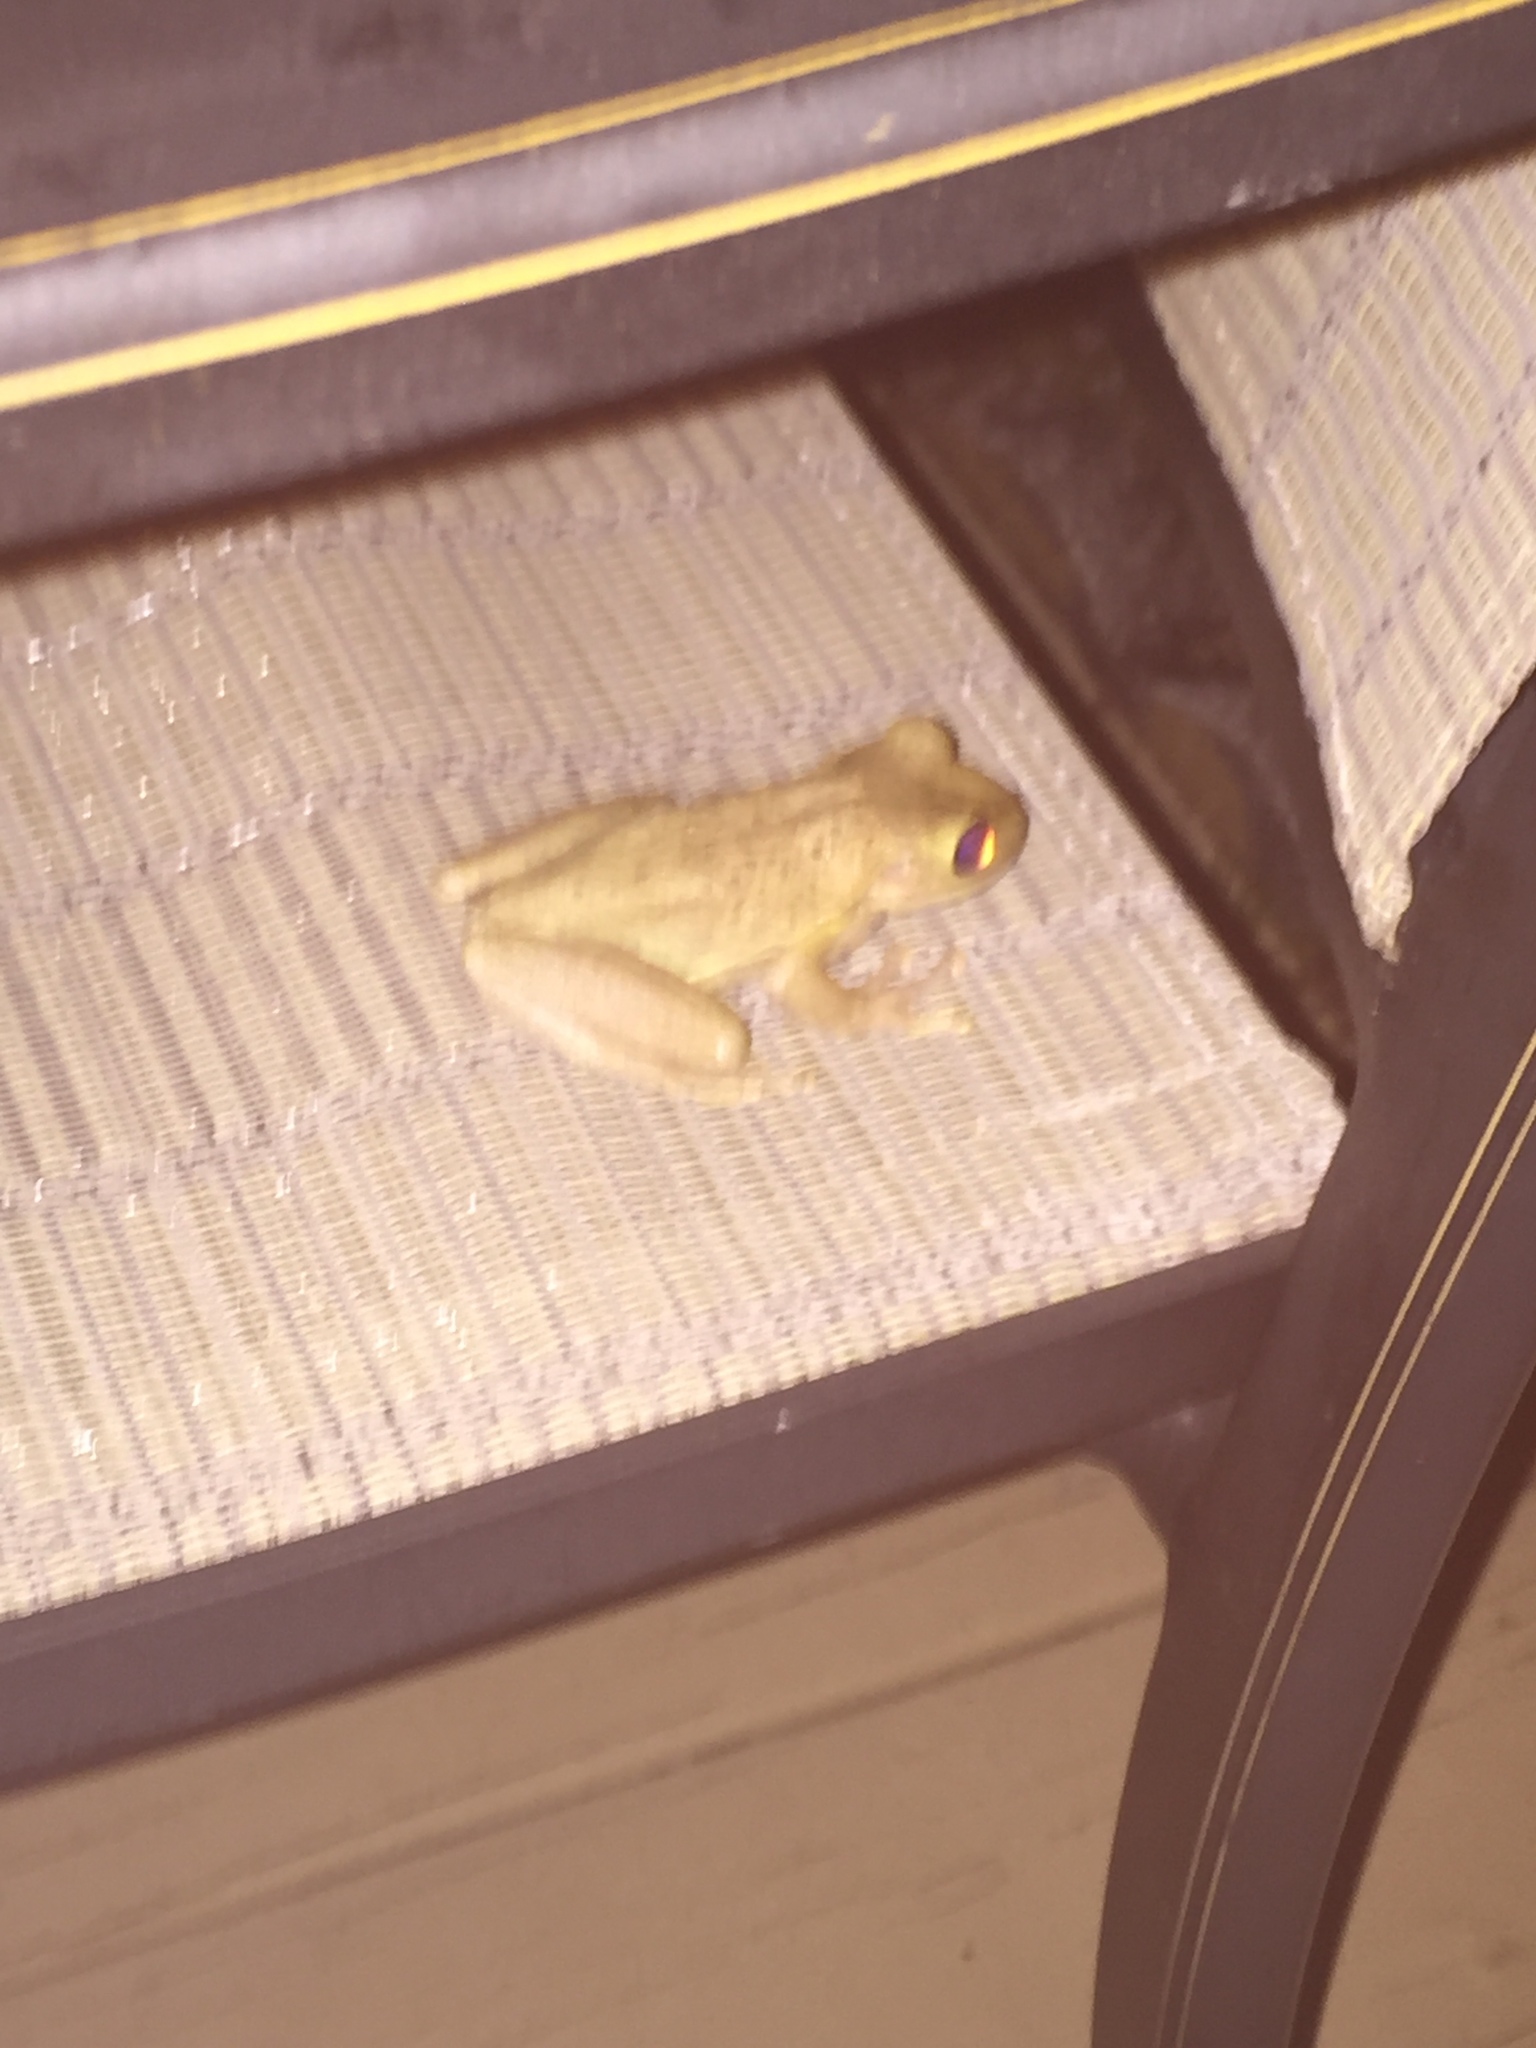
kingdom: Animalia
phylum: Chordata
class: Amphibia
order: Anura
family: Hylidae
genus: Osteopilus
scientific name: Osteopilus septentrionalis
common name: Cuban treefrog
